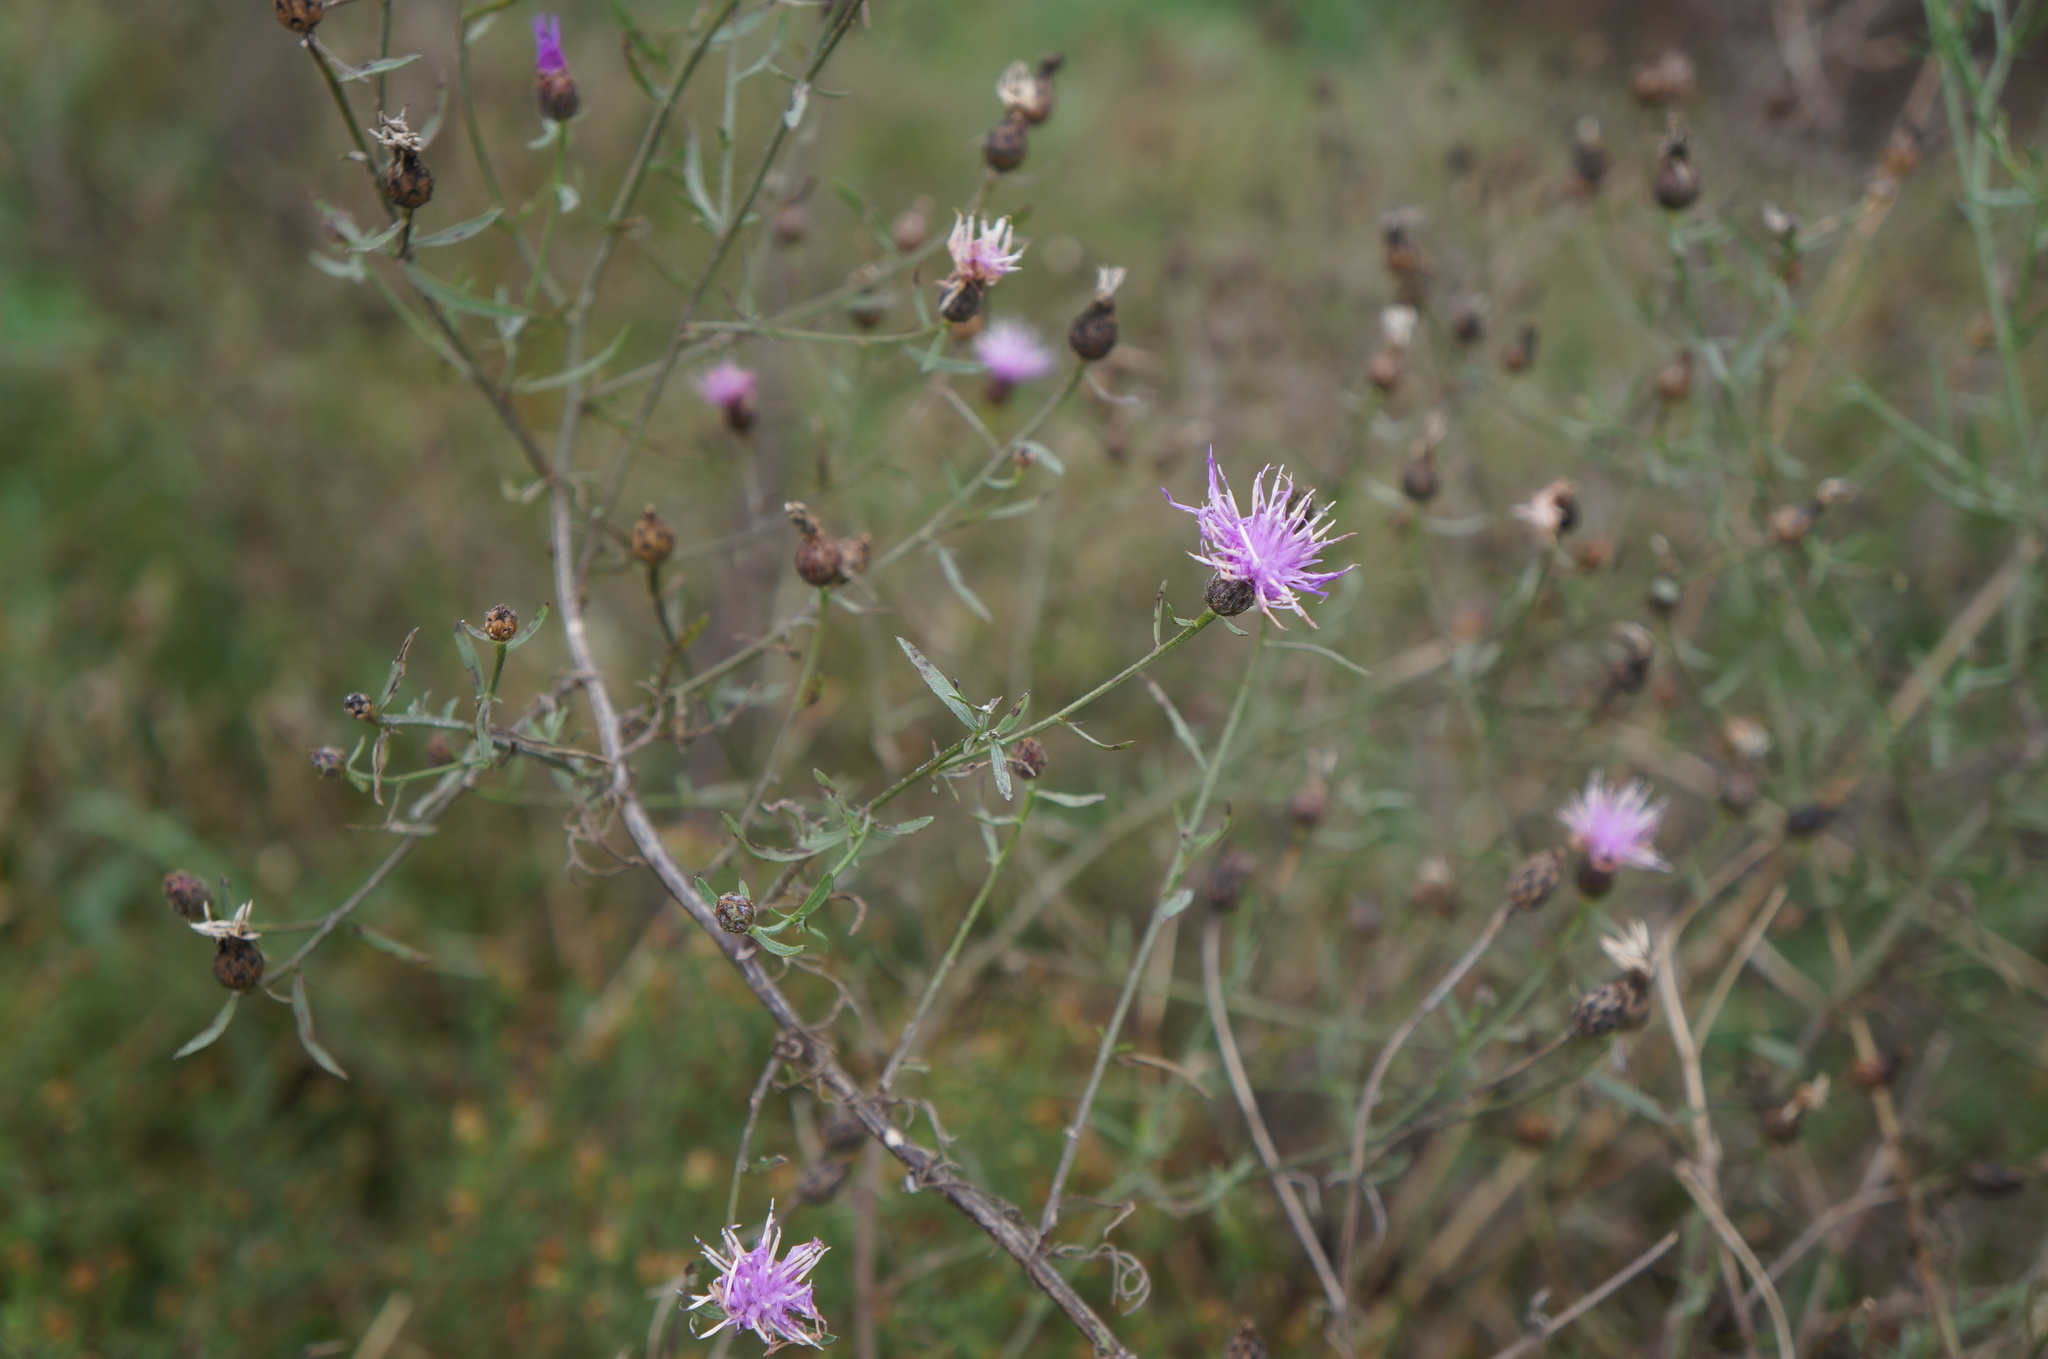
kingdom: Plantae
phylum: Tracheophyta
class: Magnoliopsida
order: Asterales
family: Asteraceae
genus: Centaurea
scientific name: Centaurea stoebe
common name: Spotted knapweed
